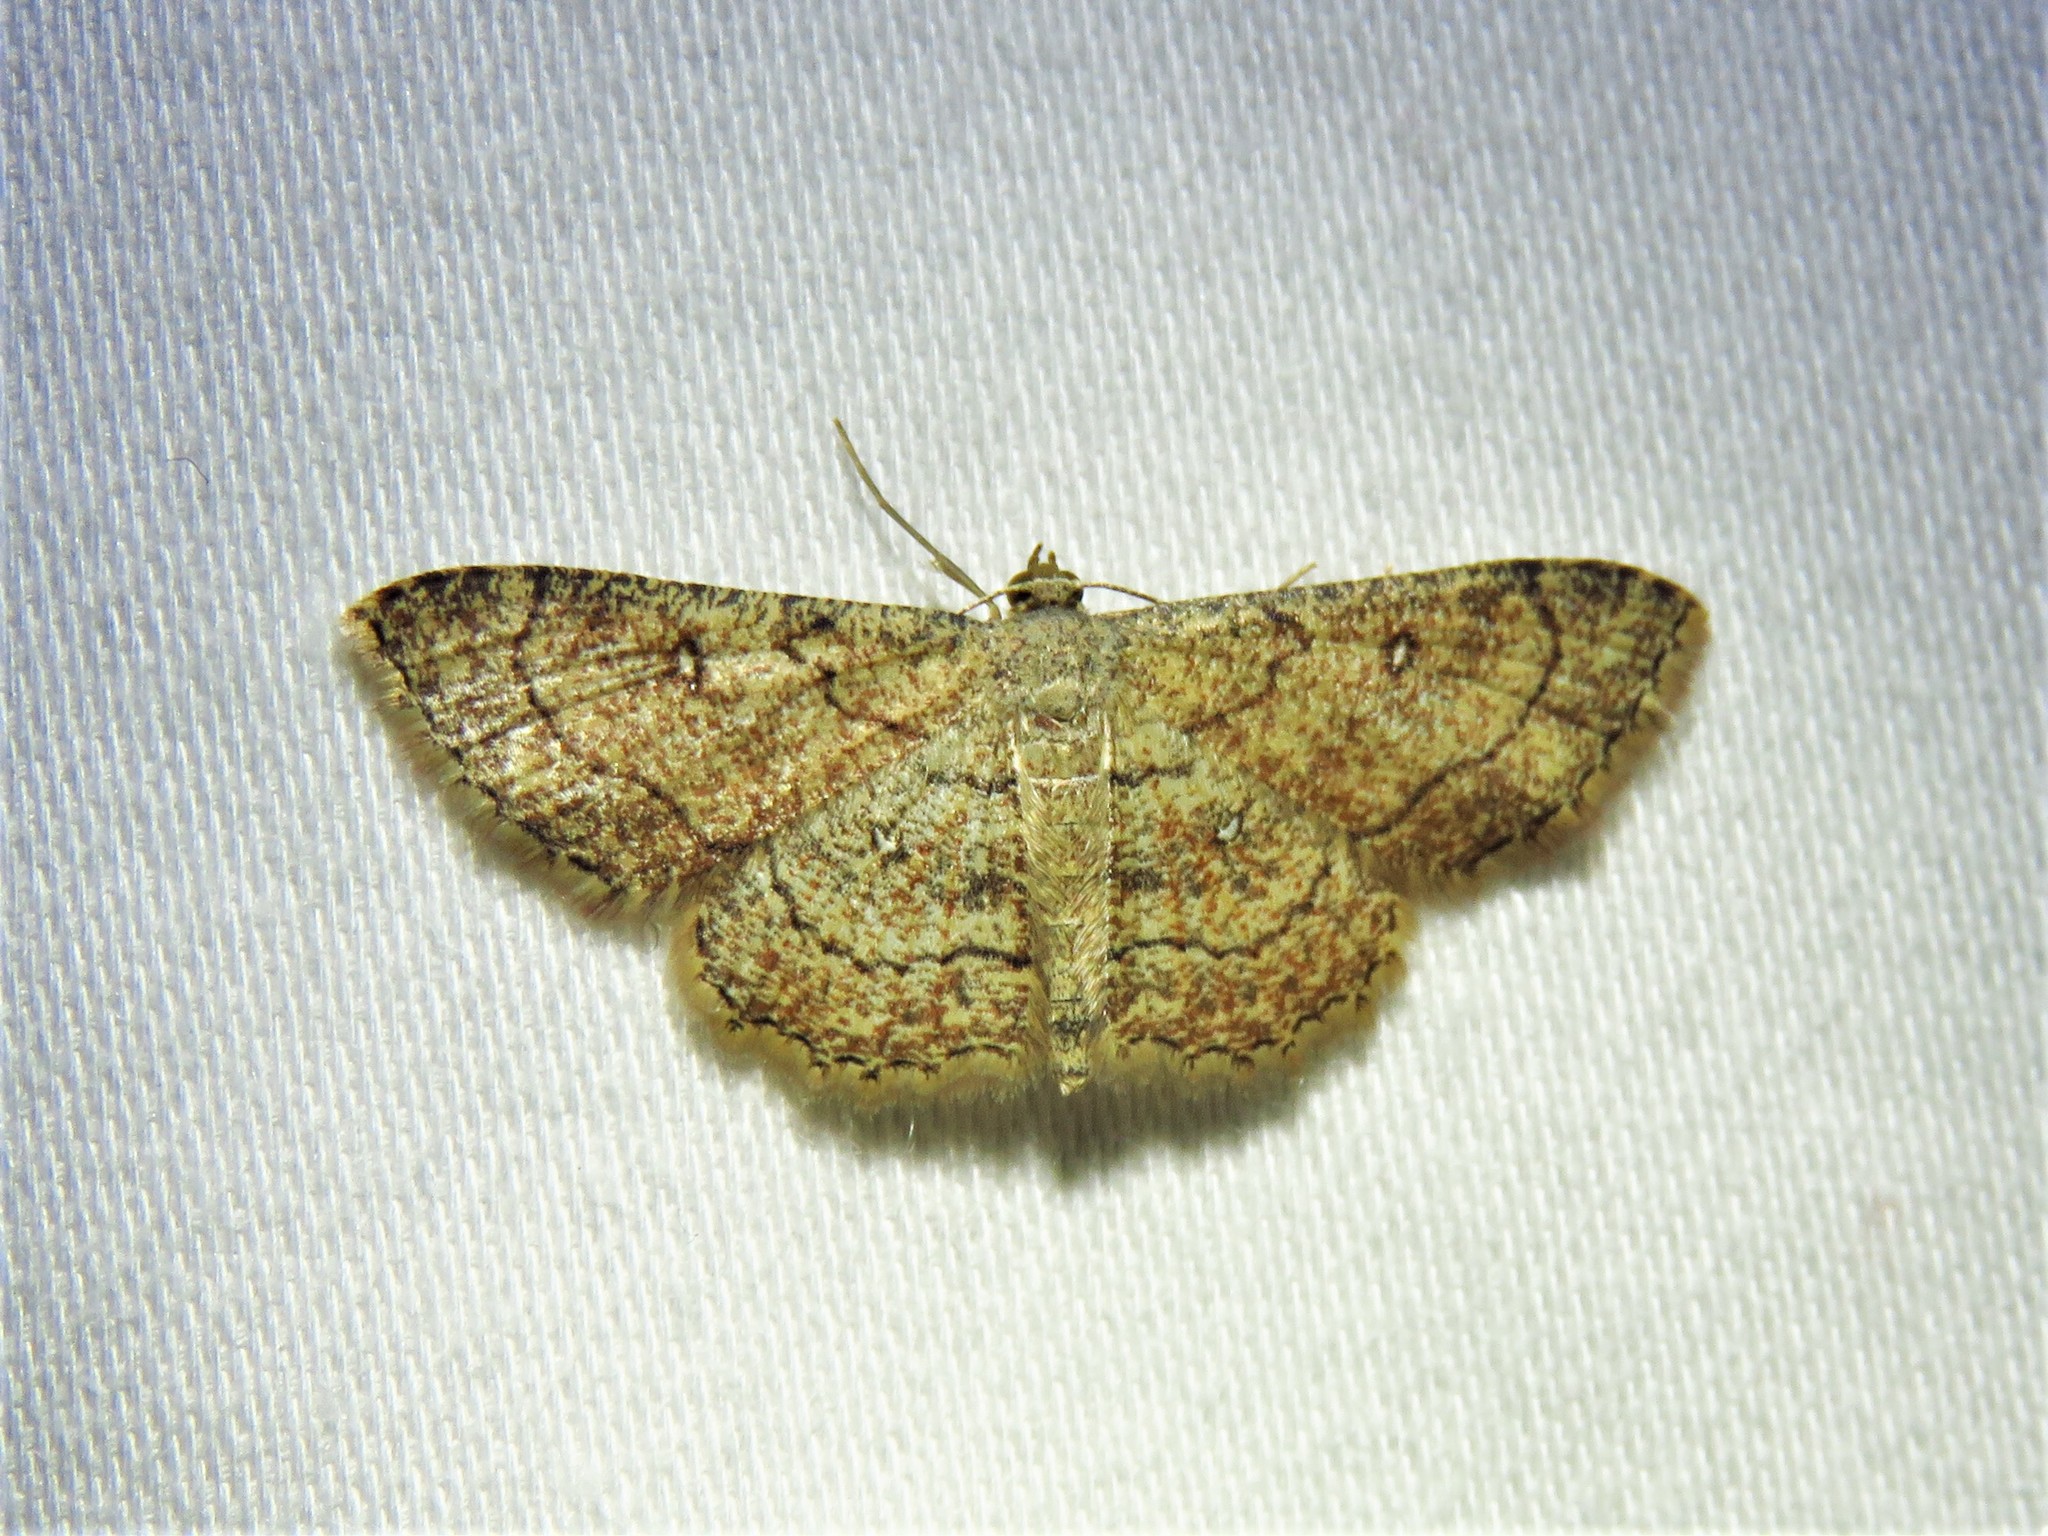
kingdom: Animalia
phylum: Arthropoda
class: Insecta
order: Lepidoptera
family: Geometridae
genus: Cyclophora
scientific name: Cyclophora nanaria
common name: Cankerworm
